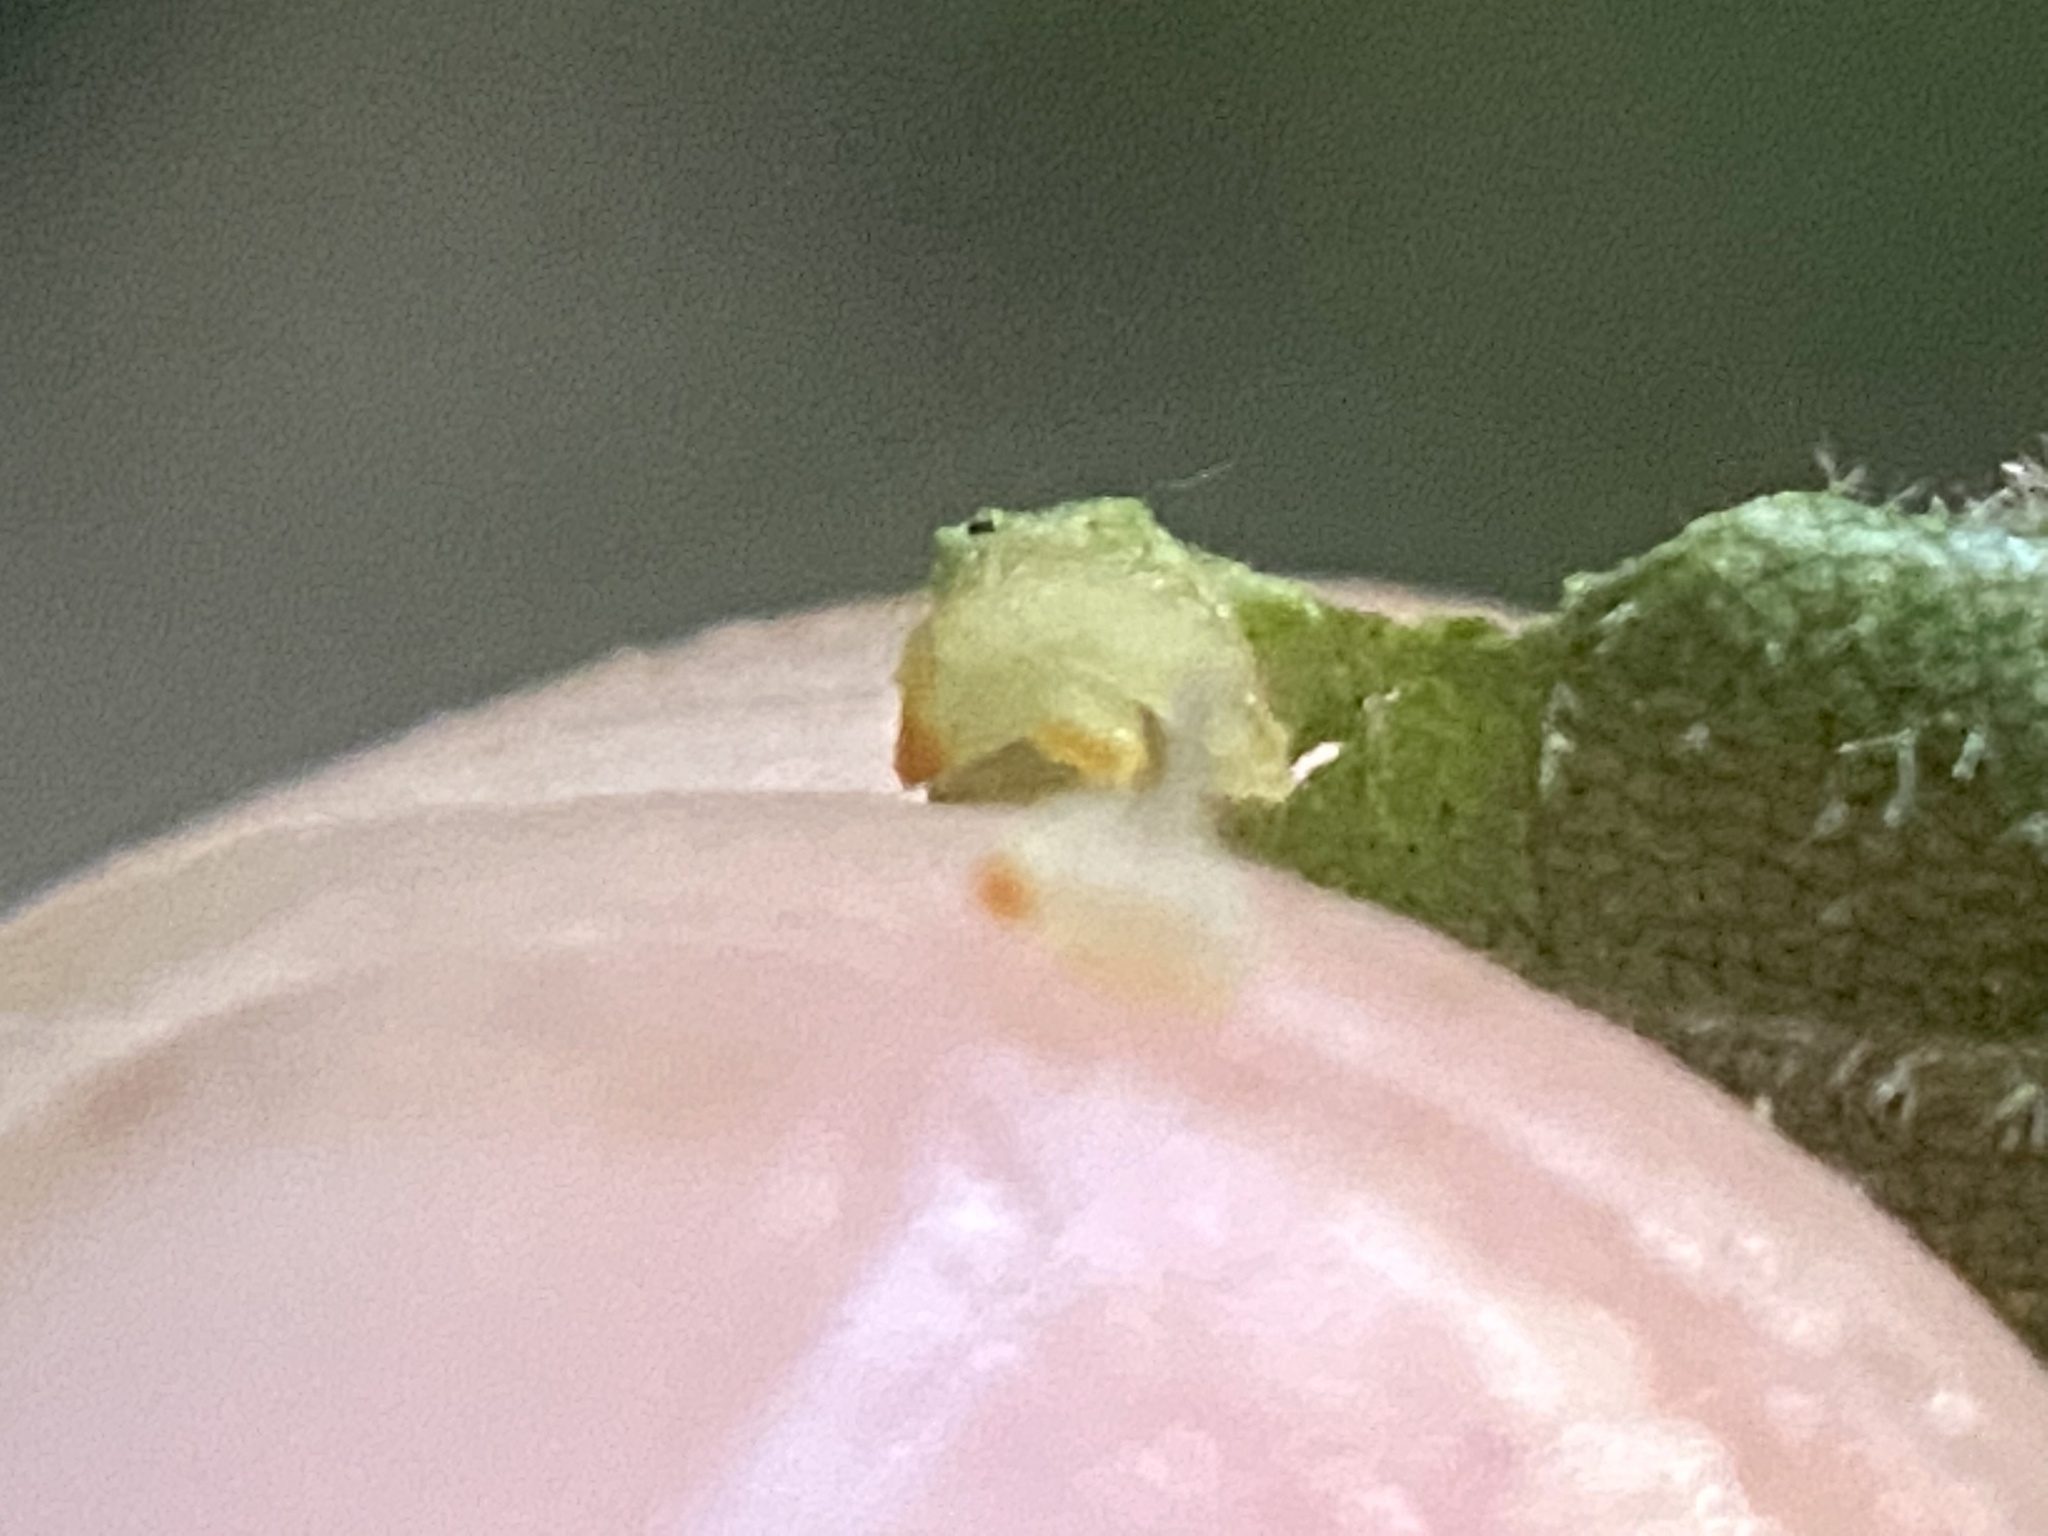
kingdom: Animalia
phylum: Arthropoda
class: Insecta
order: Diptera
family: Cecidomyiidae
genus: Caryomyia
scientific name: Caryomyia urnula
